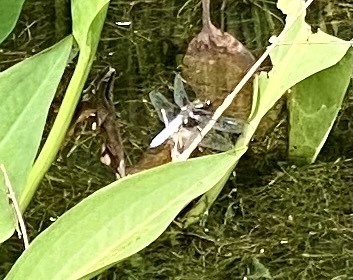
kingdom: Animalia
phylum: Arthropoda
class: Insecta
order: Odonata
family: Libellulidae
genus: Libellula
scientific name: Libellula depressa
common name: Broad-bodied chaser
